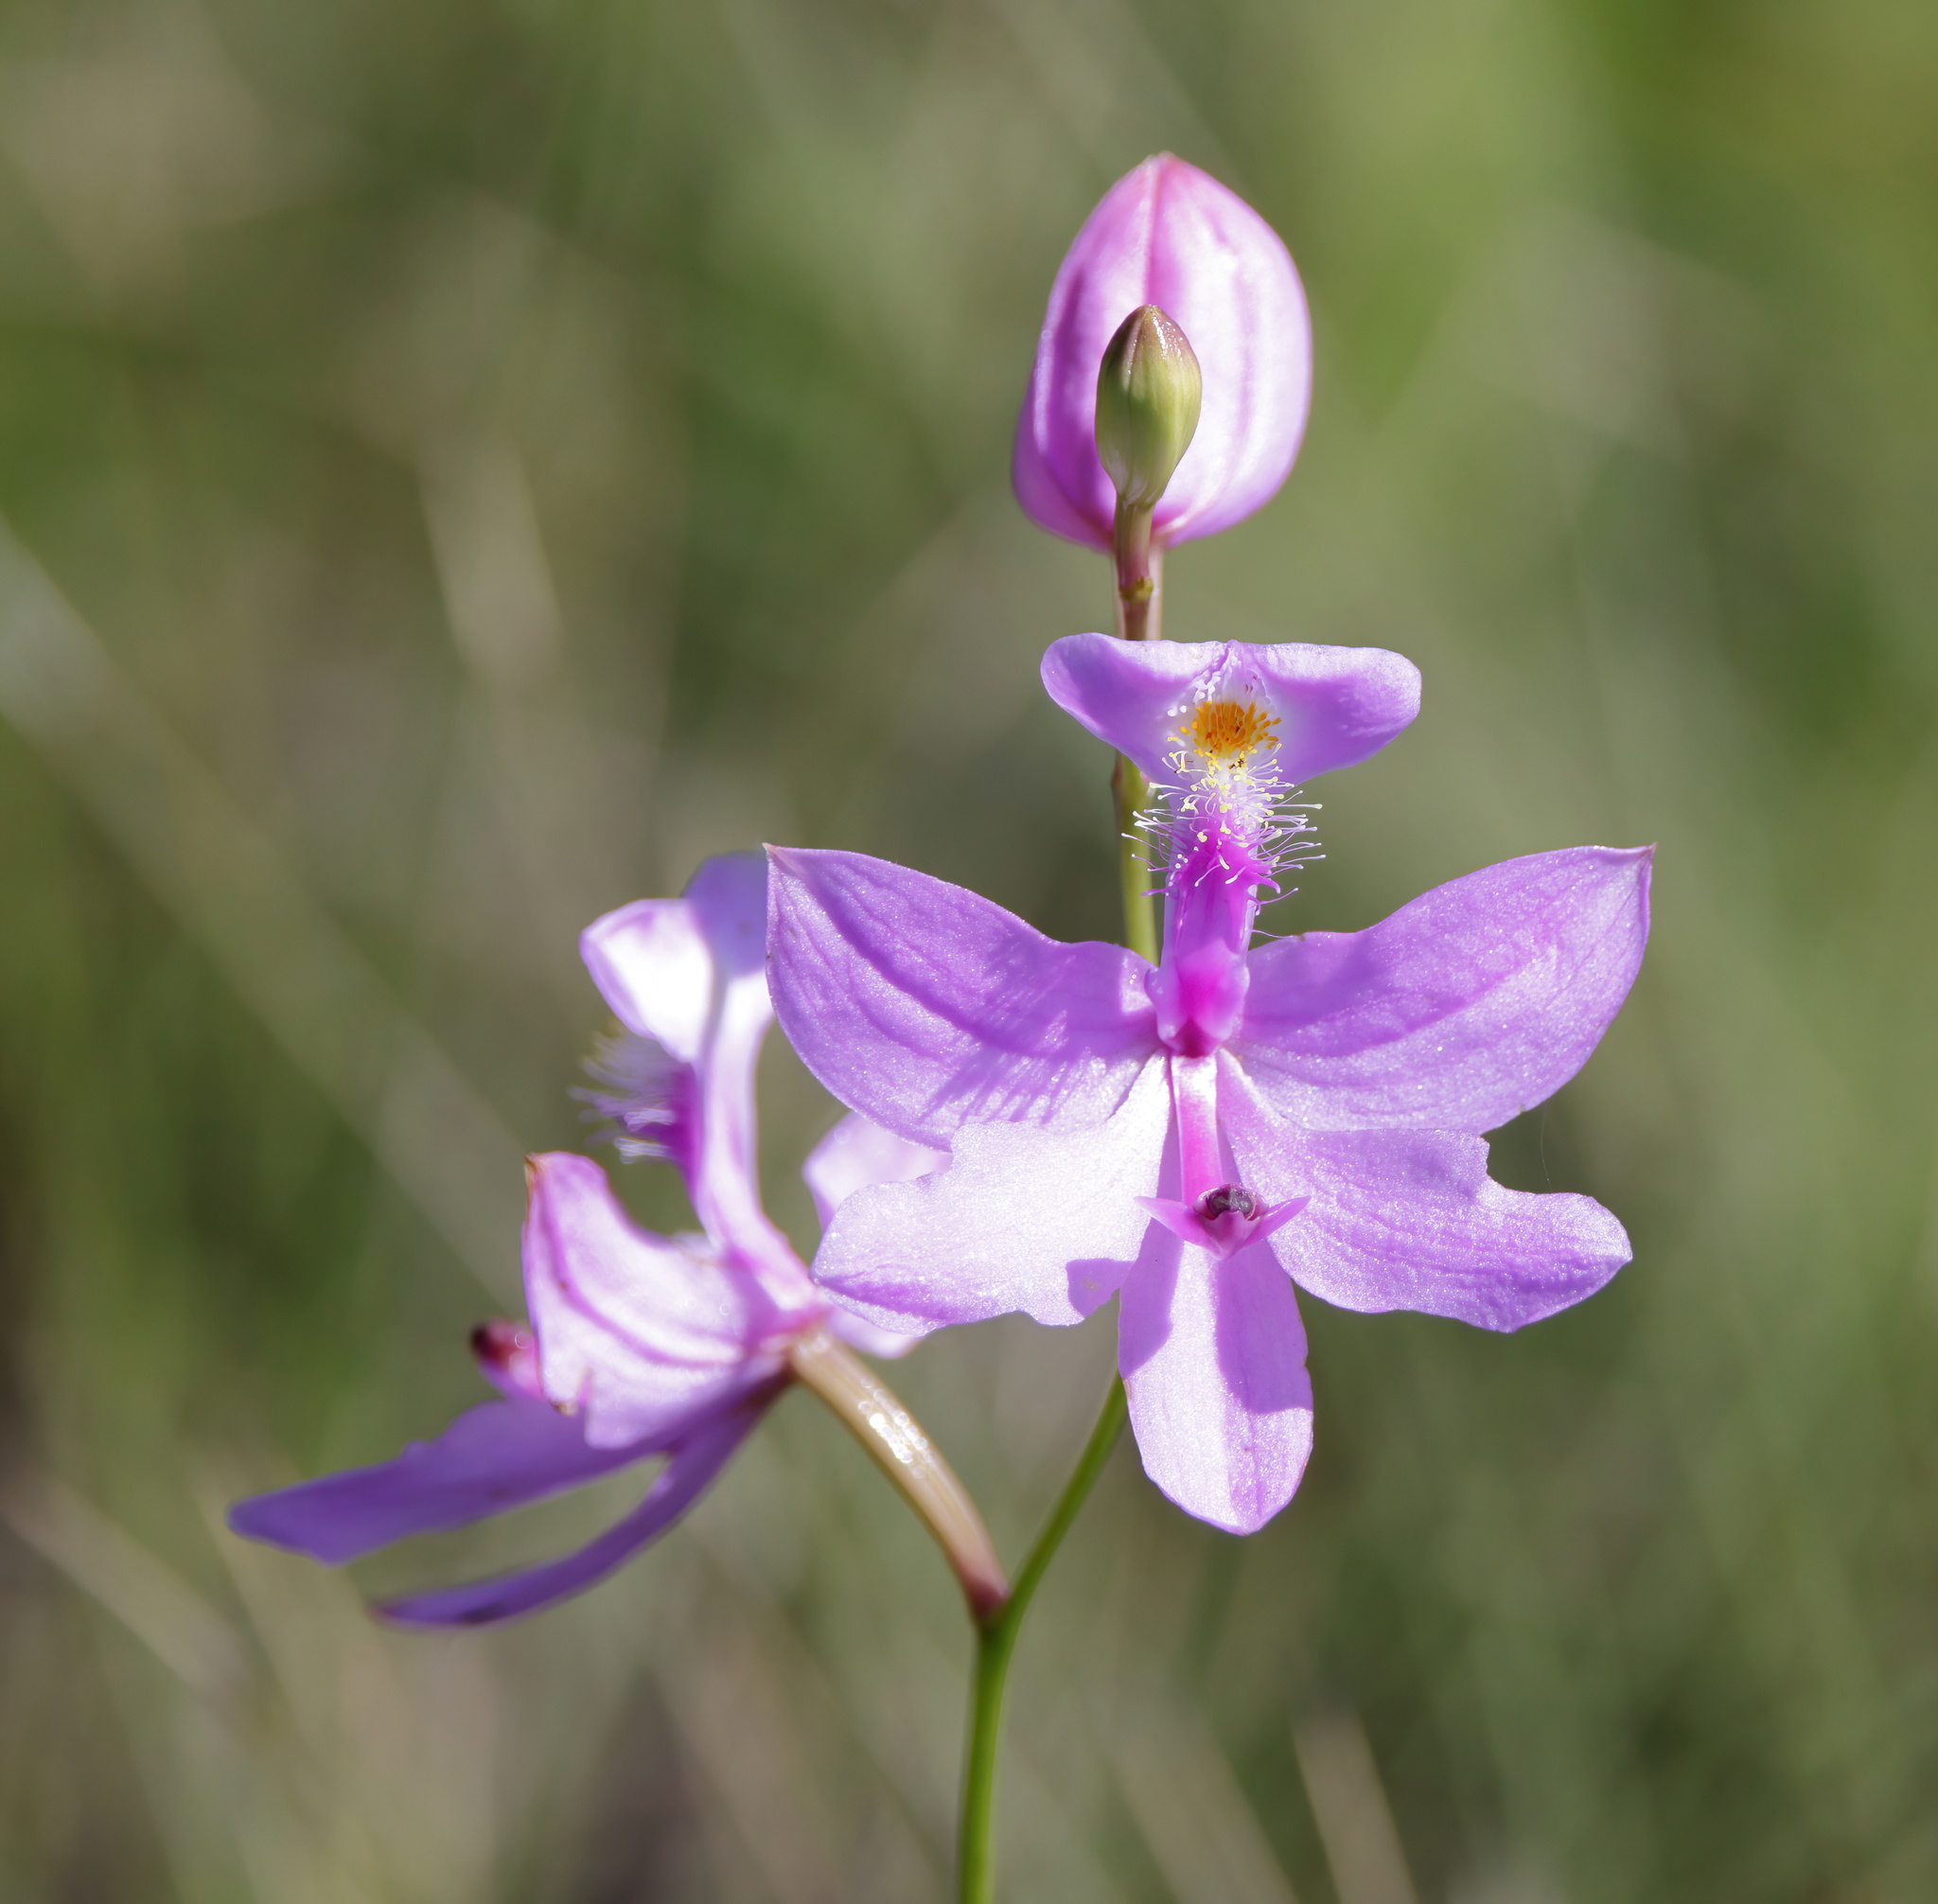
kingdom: Plantae
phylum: Tracheophyta
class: Liliopsida
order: Asparagales
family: Orchidaceae
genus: Calopogon
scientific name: Calopogon tuberosus
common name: Grass-pink
